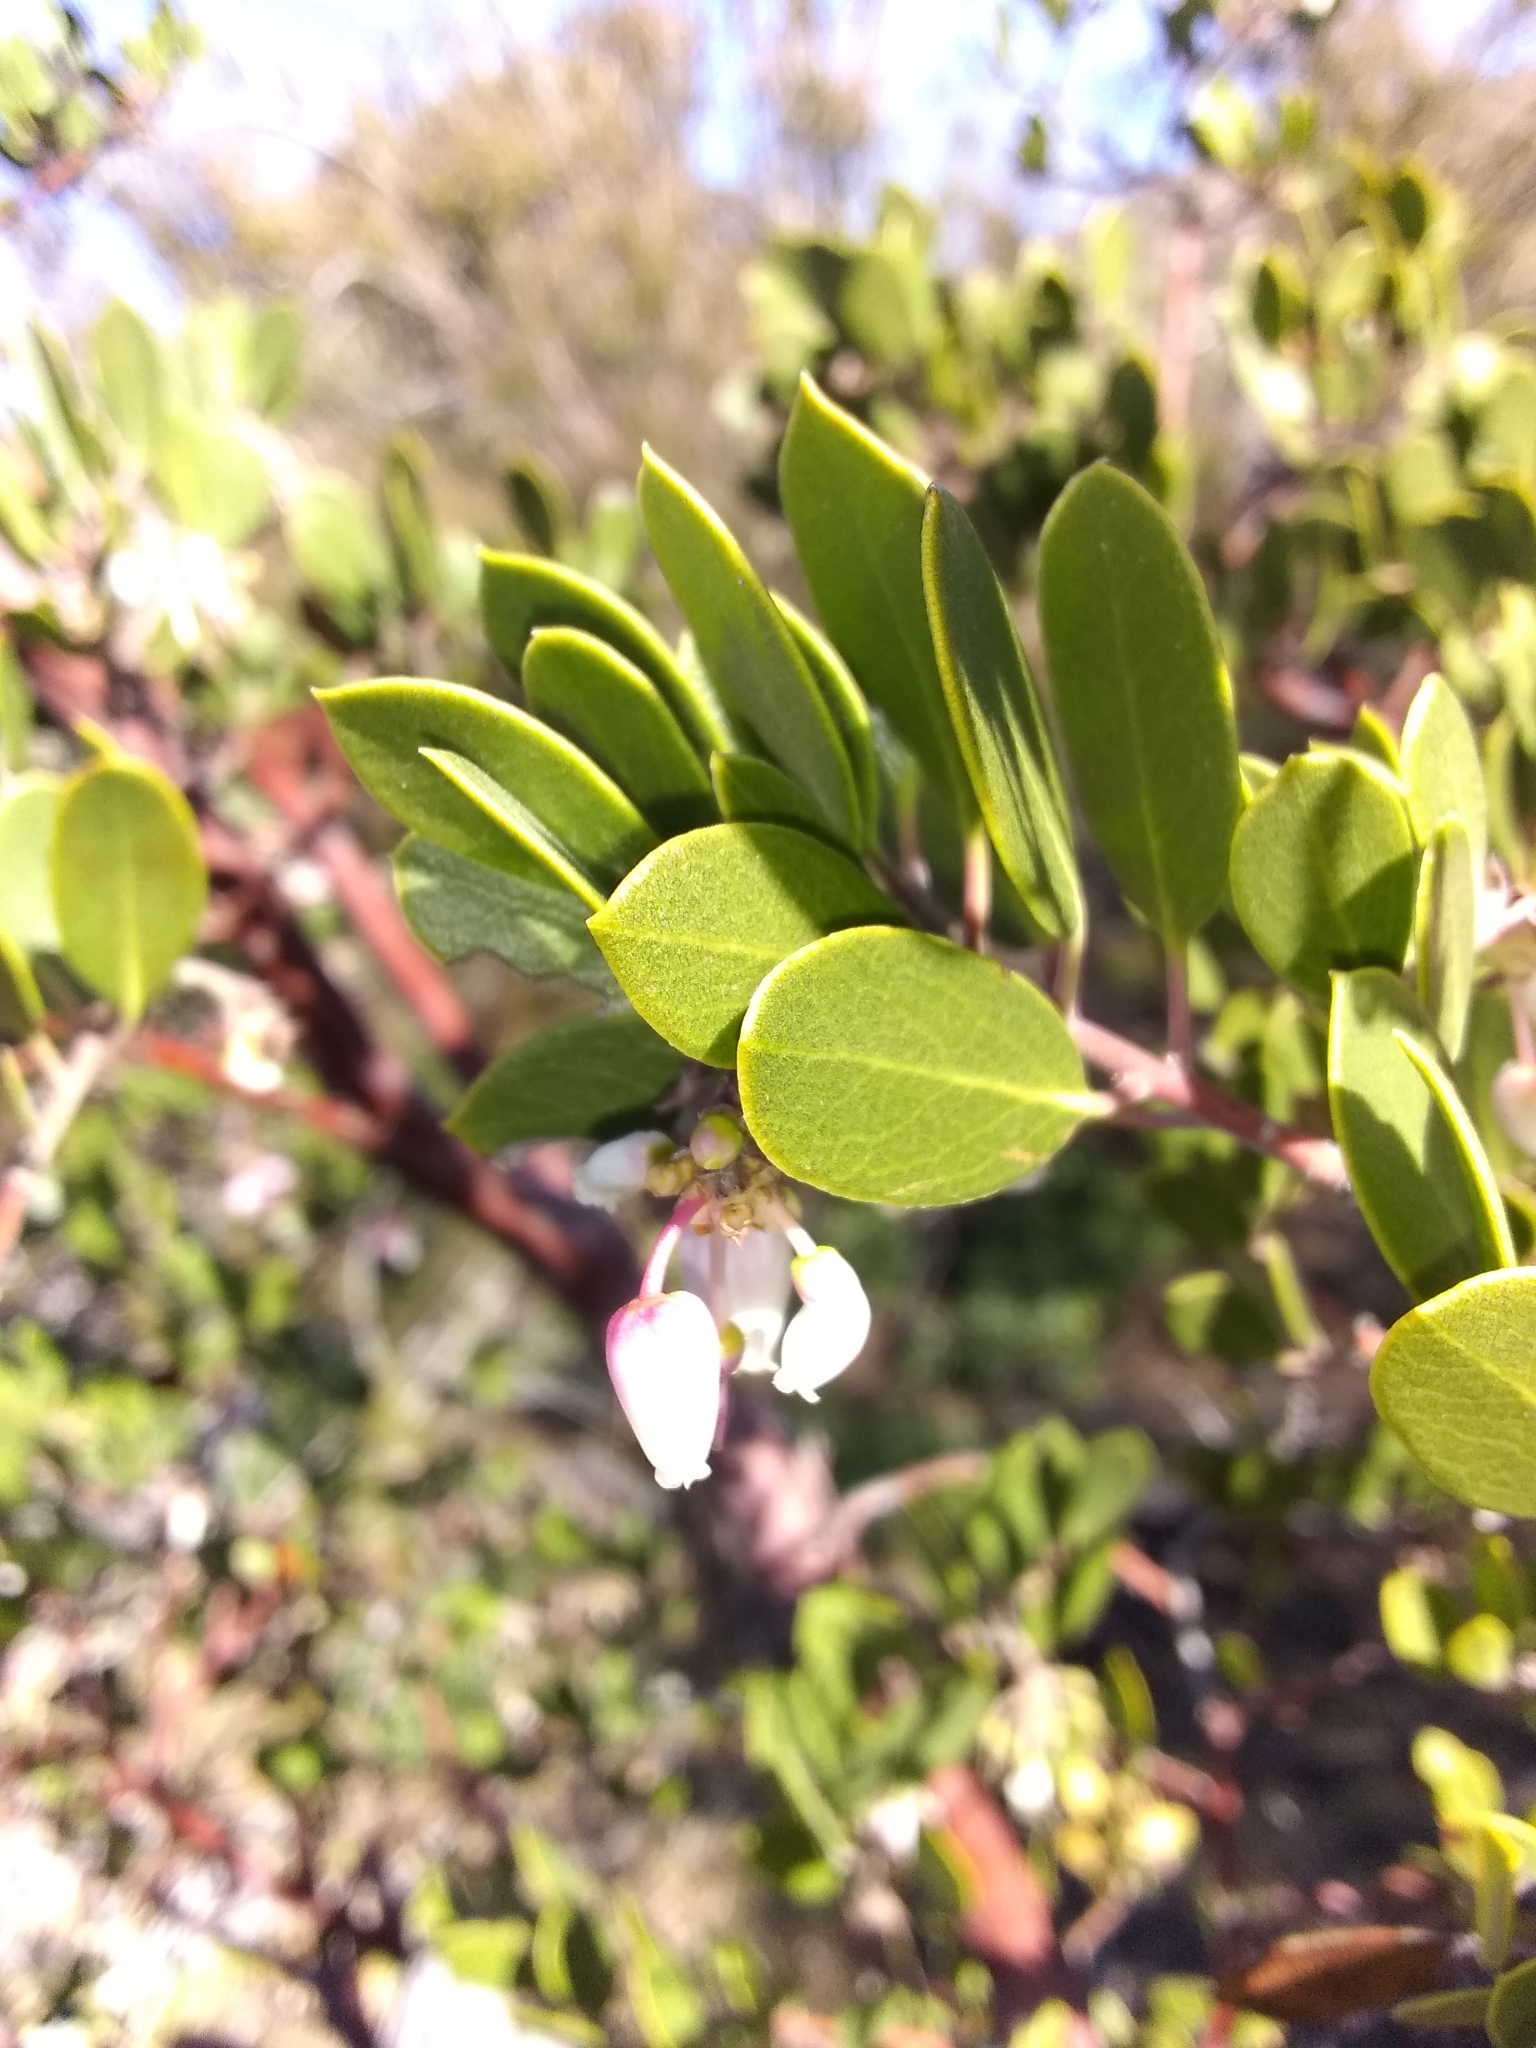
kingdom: Plantae
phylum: Tracheophyta
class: Magnoliopsida
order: Ericales
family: Ericaceae
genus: Arctostaphylos
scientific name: Arctostaphylos pungens
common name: Mexican manzanita
